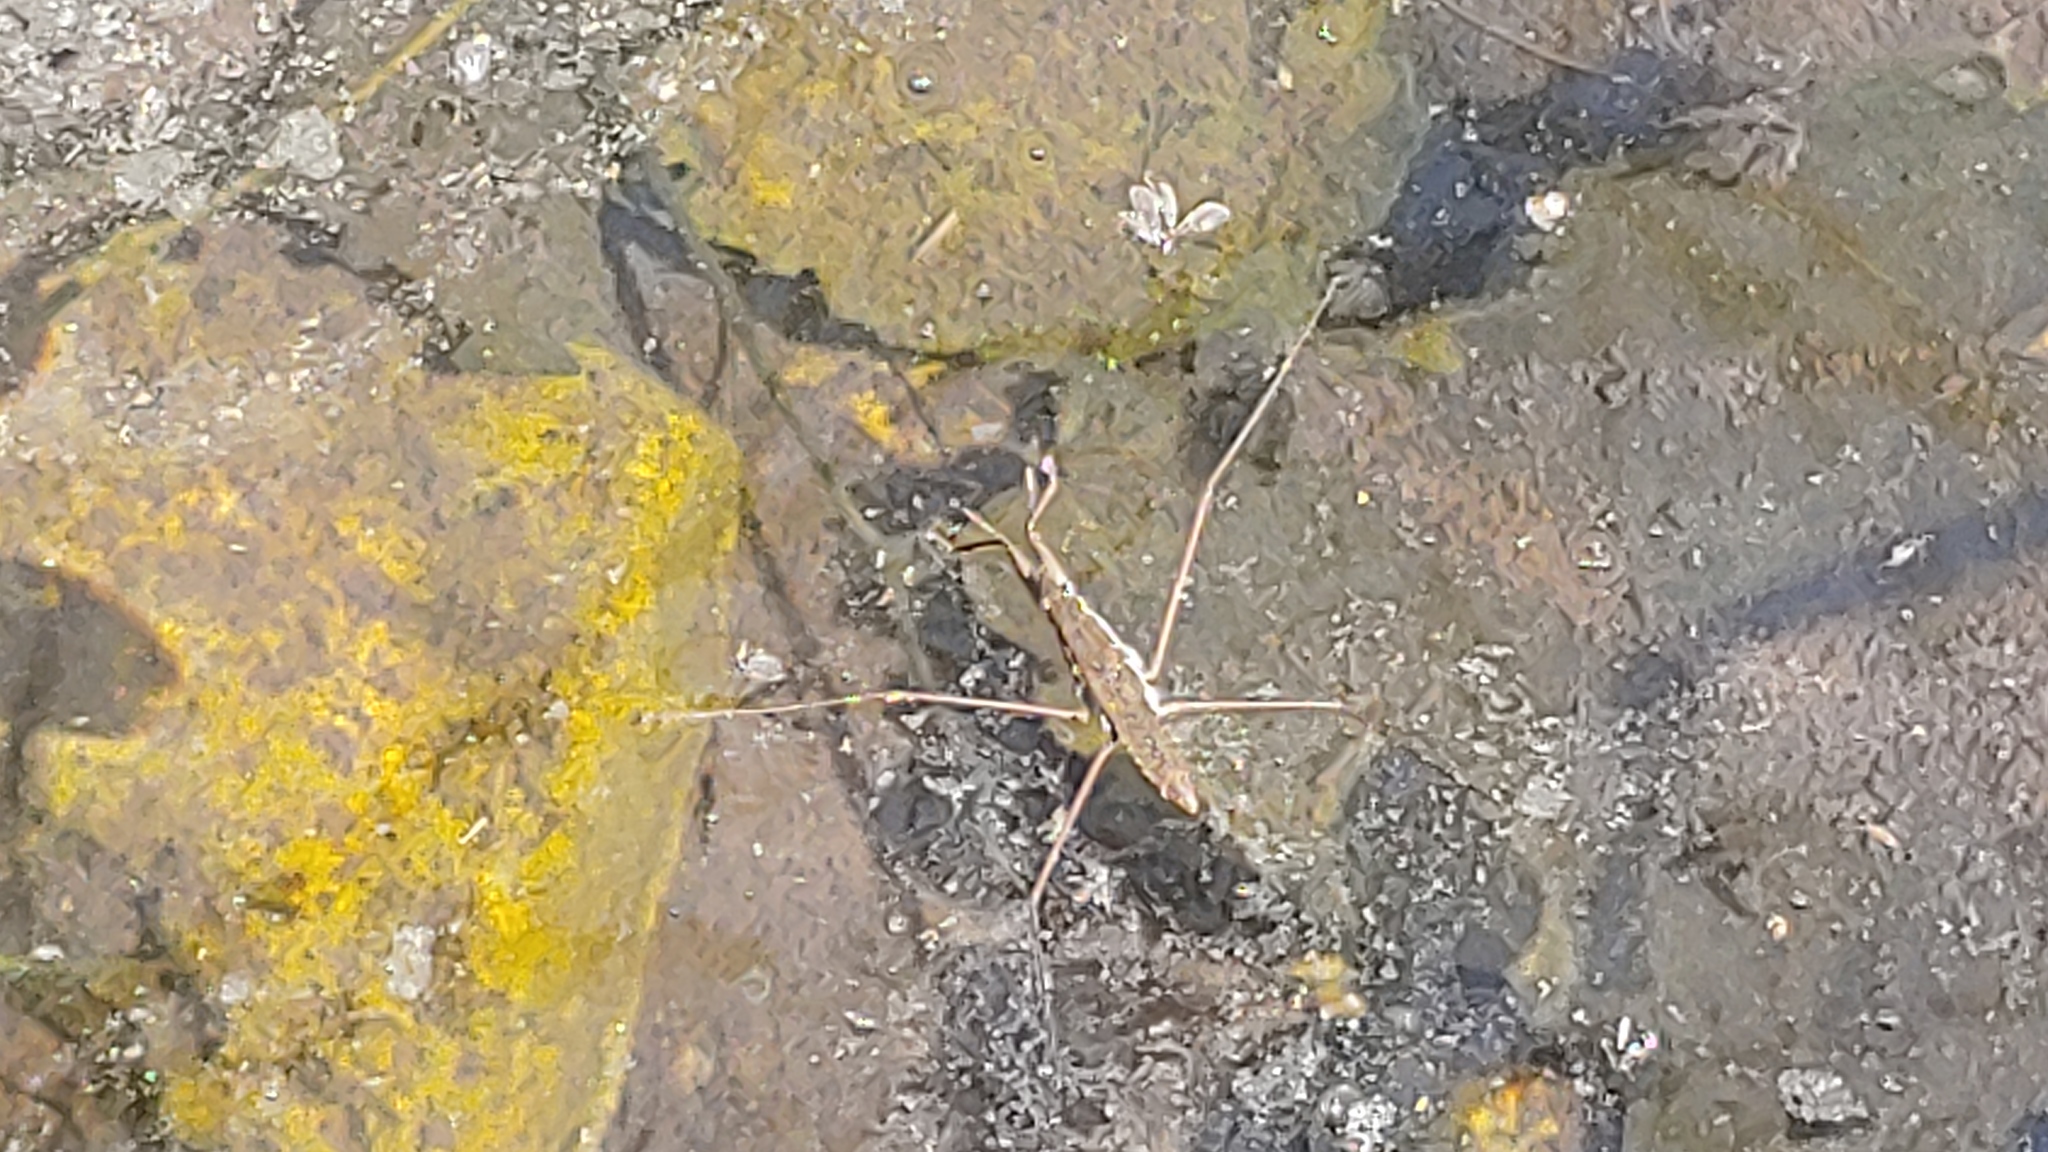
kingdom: Animalia
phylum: Arthropoda
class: Insecta
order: Hemiptera
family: Gerridae
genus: Aquarius
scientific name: Aquarius remigis
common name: Common water strider
